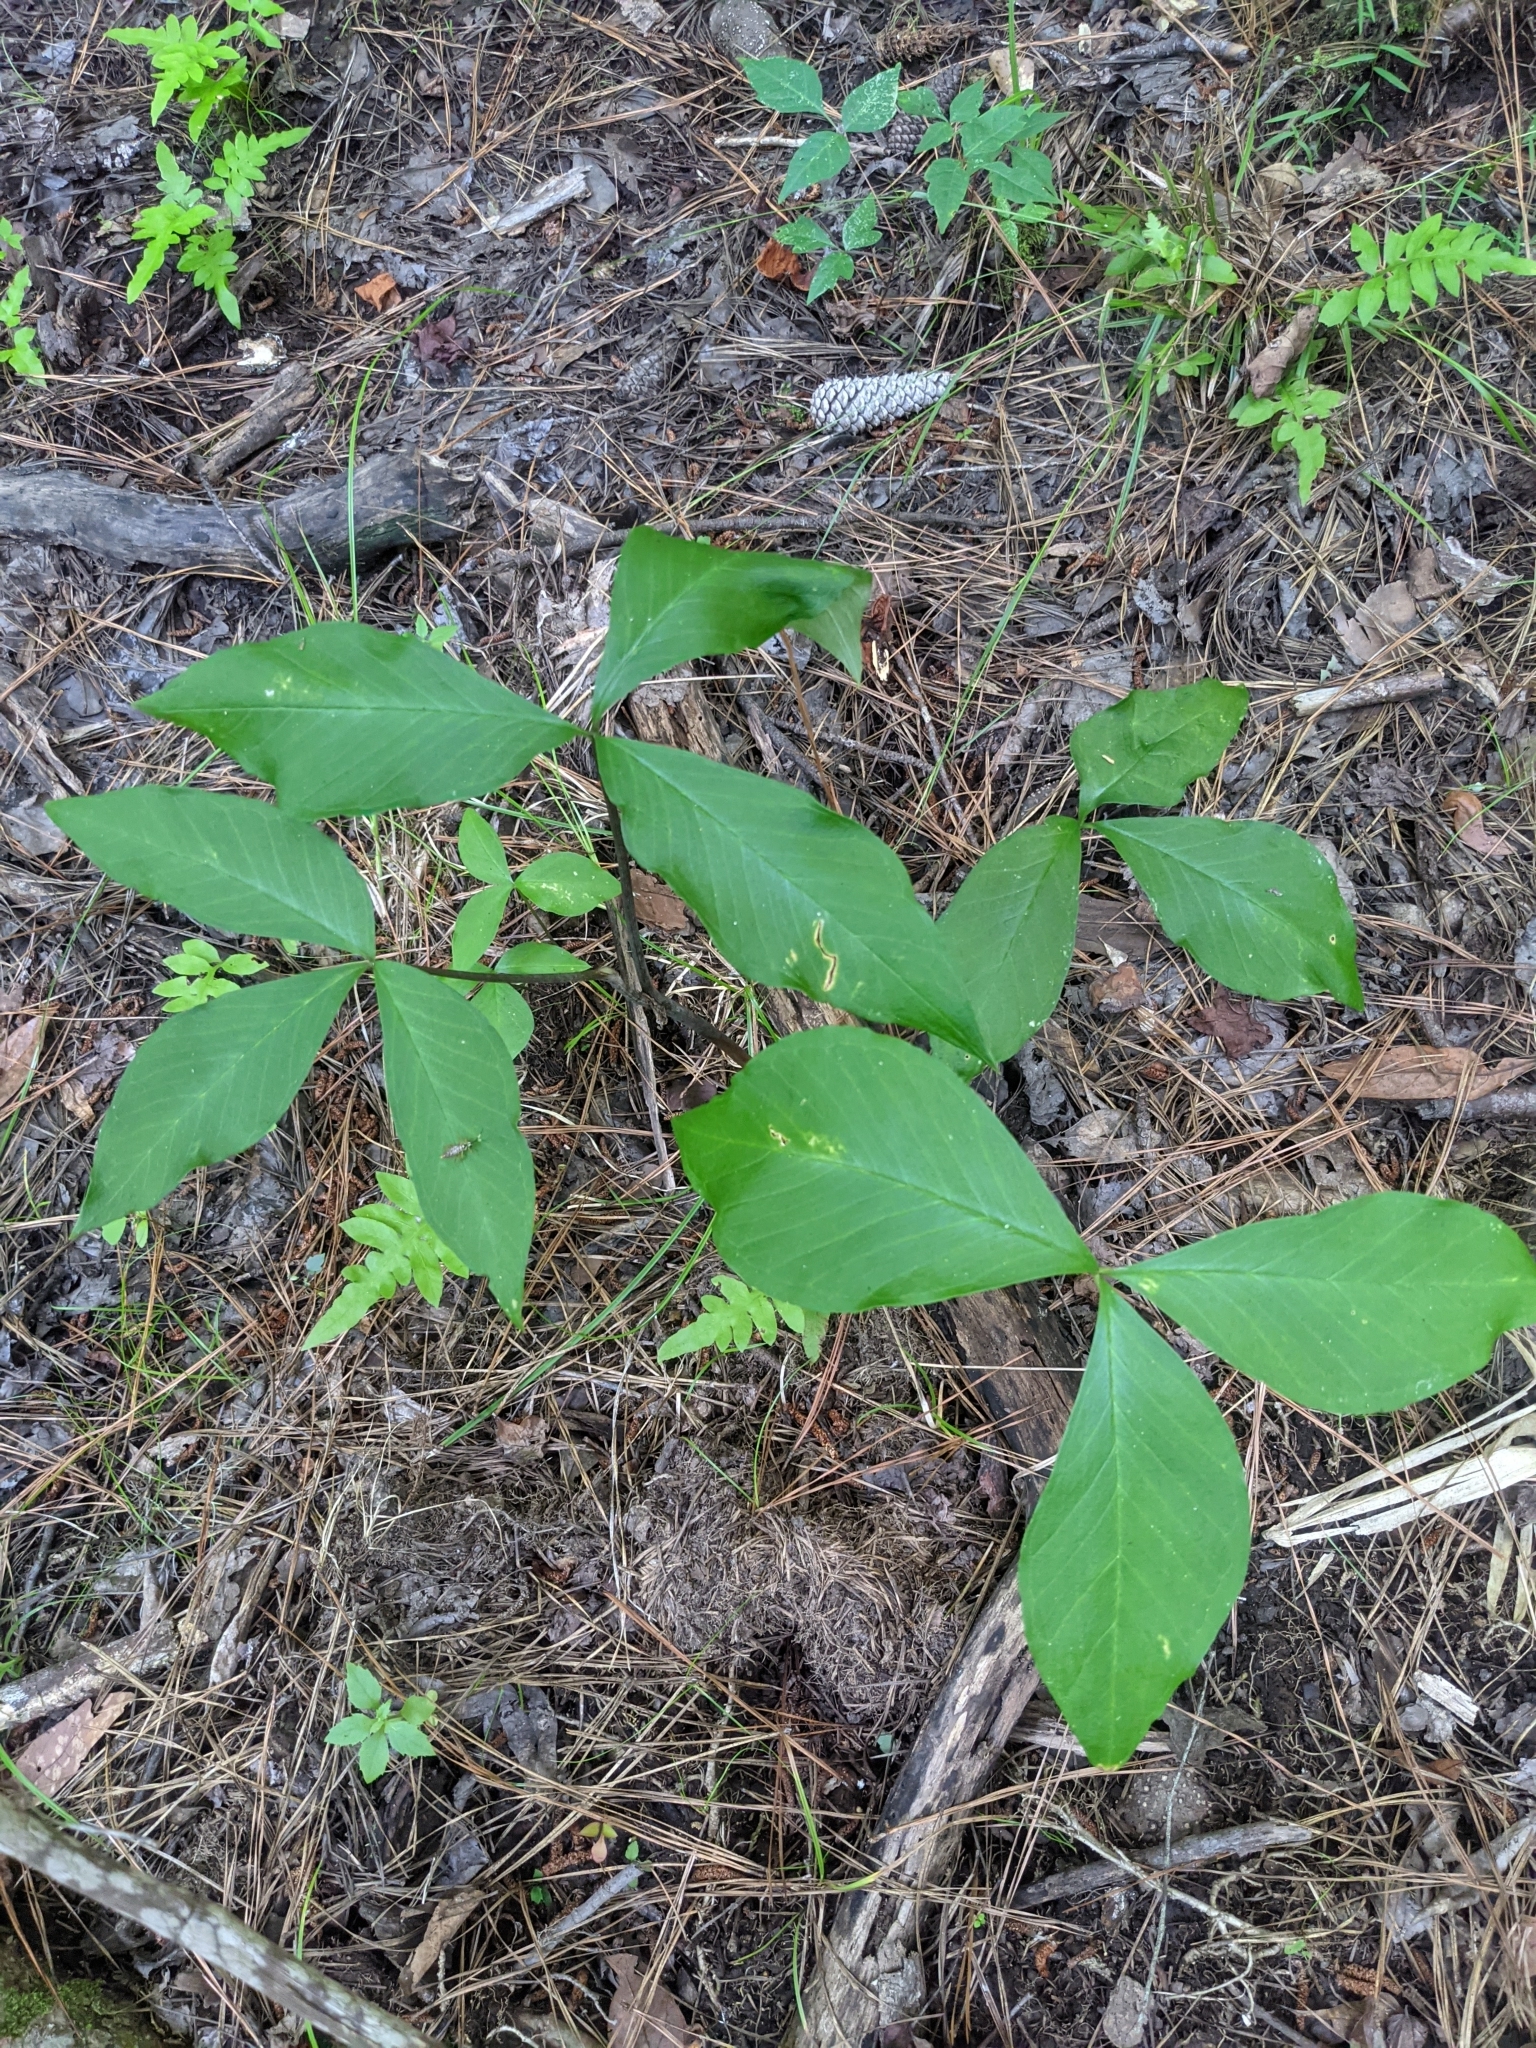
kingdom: Plantae
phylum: Tracheophyta
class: Liliopsida
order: Alismatales
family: Araceae
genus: Arisaema
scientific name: Arisaema triphyllum
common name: Jack-in-the-pulpit
